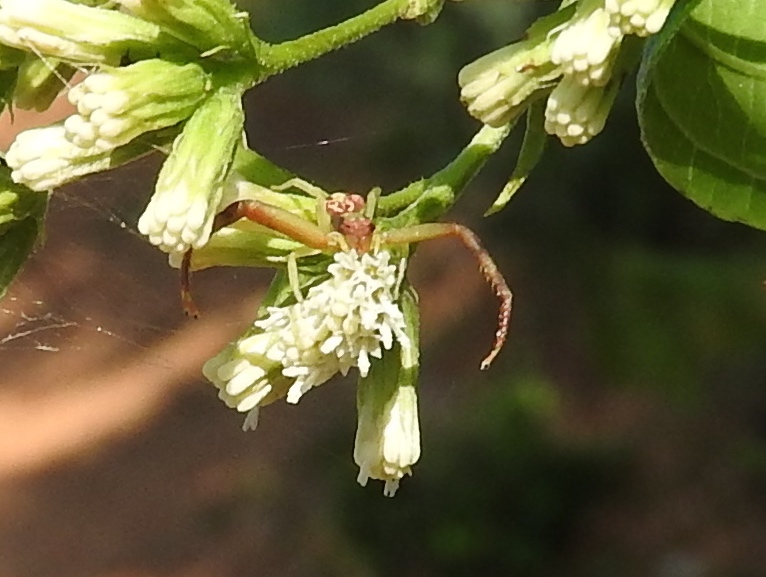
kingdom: Animalia
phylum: Arthropoda
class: Arachnida
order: Araneae
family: Thomisidae
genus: Mecaphesa
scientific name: Mecaphesa
